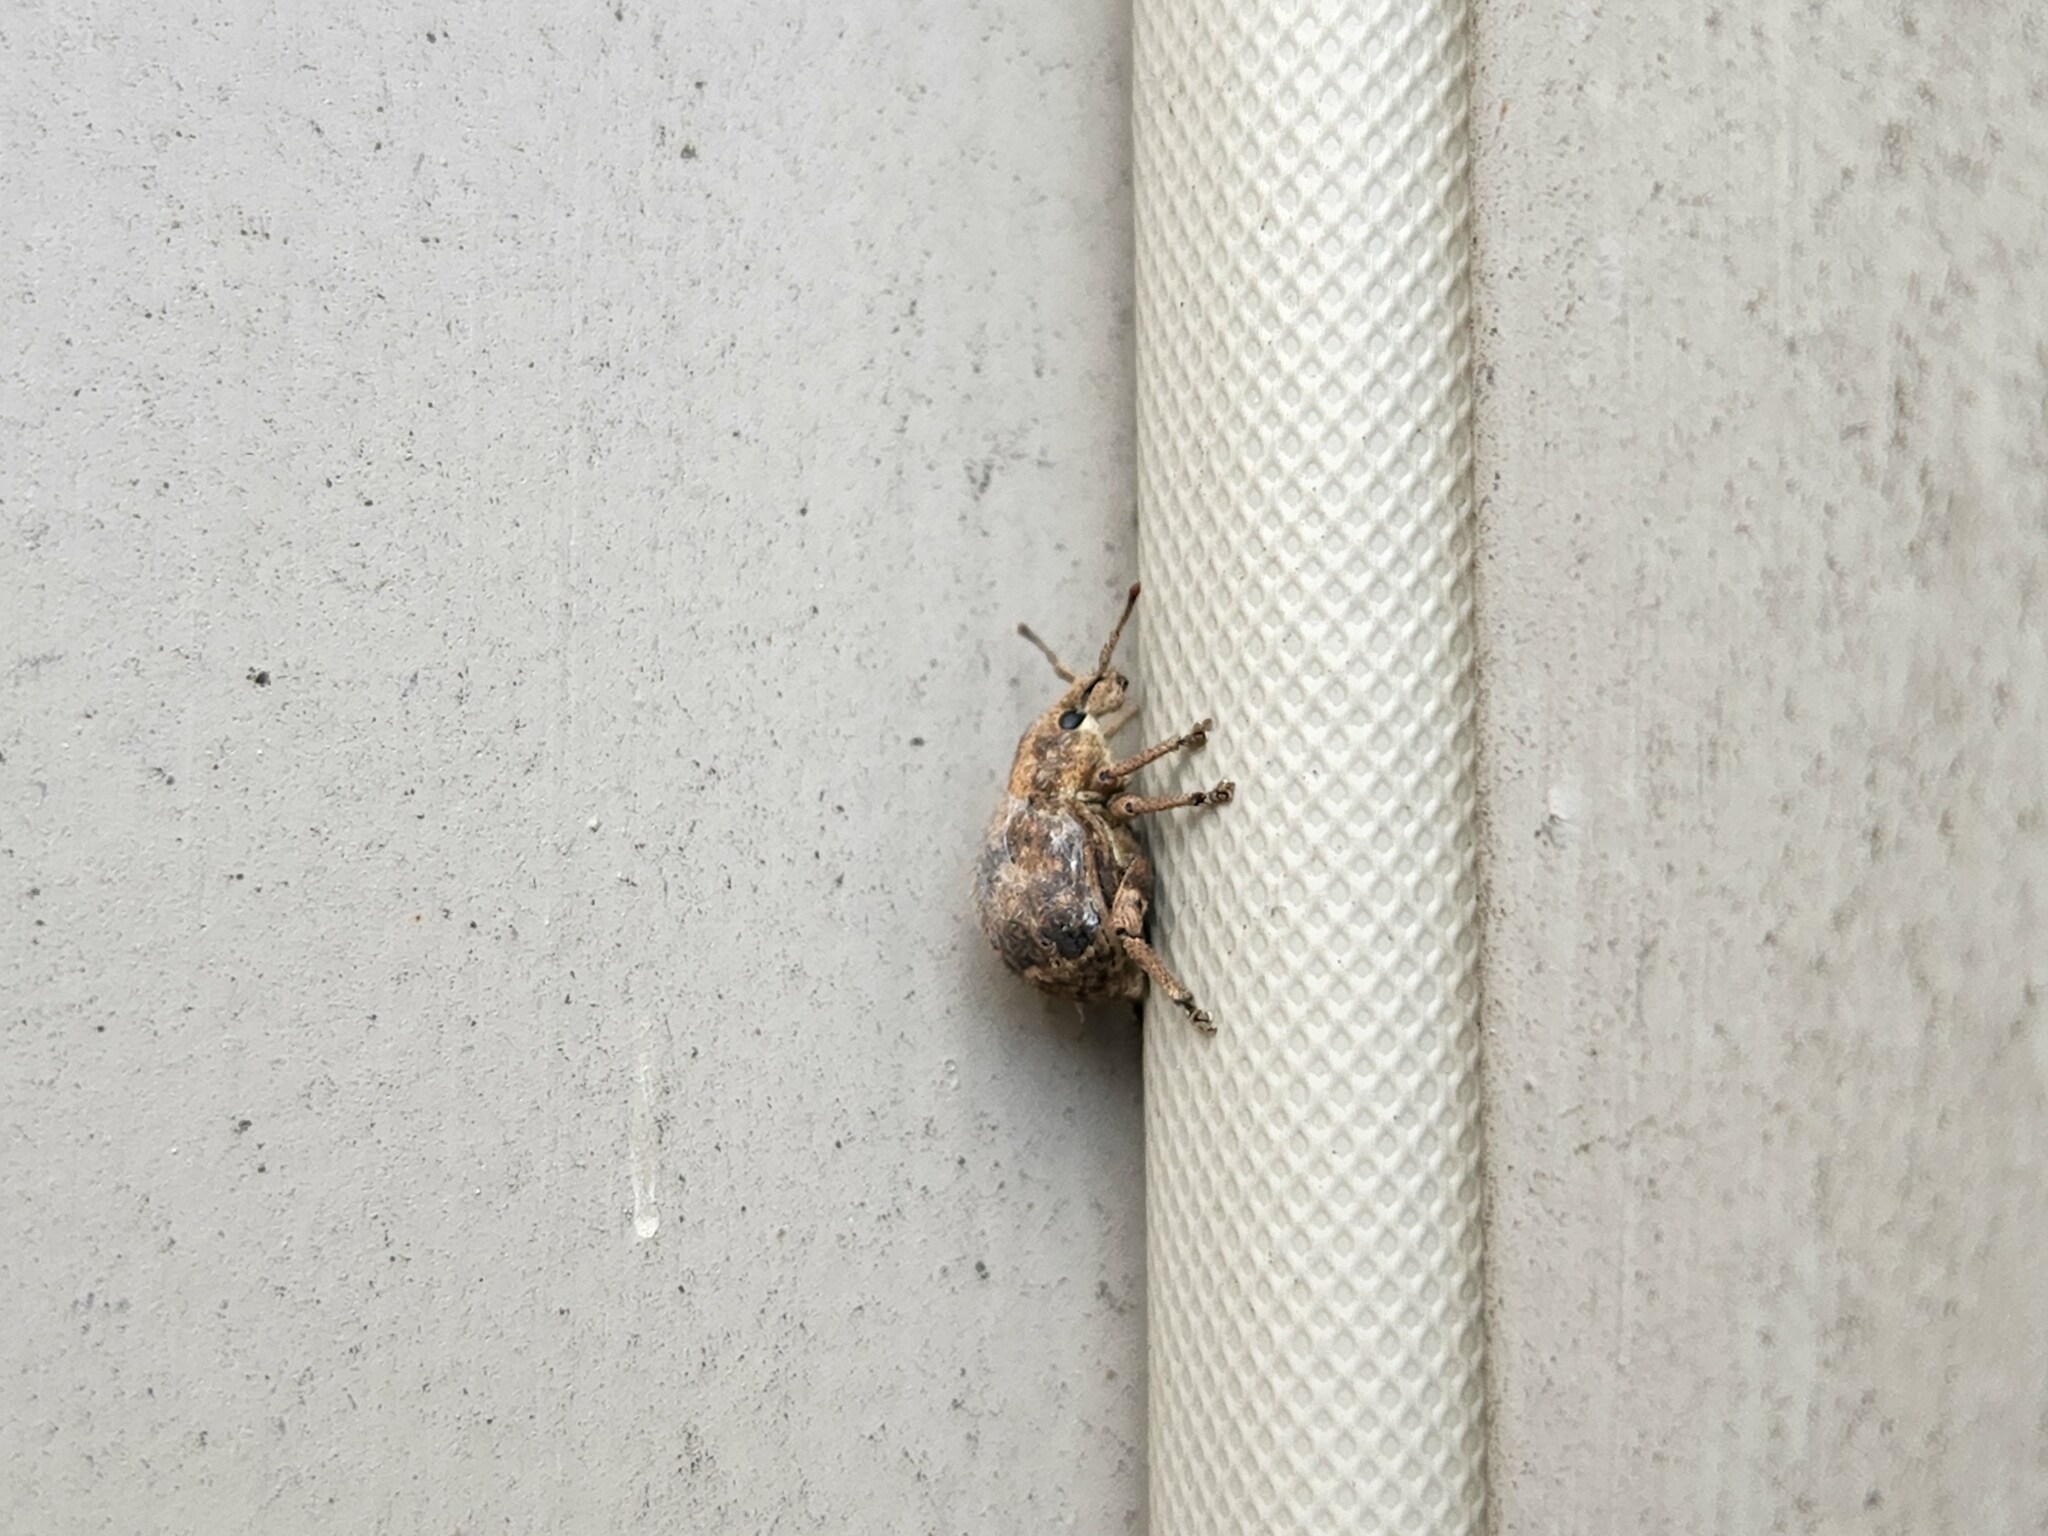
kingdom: Animalia
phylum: Arthropoda
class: Insecta
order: Coleoptera
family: Curculionidae
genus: Pseudocneorhinus
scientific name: Pseudocneorhinus bifasciatus
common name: Two-banded japanese weevil
